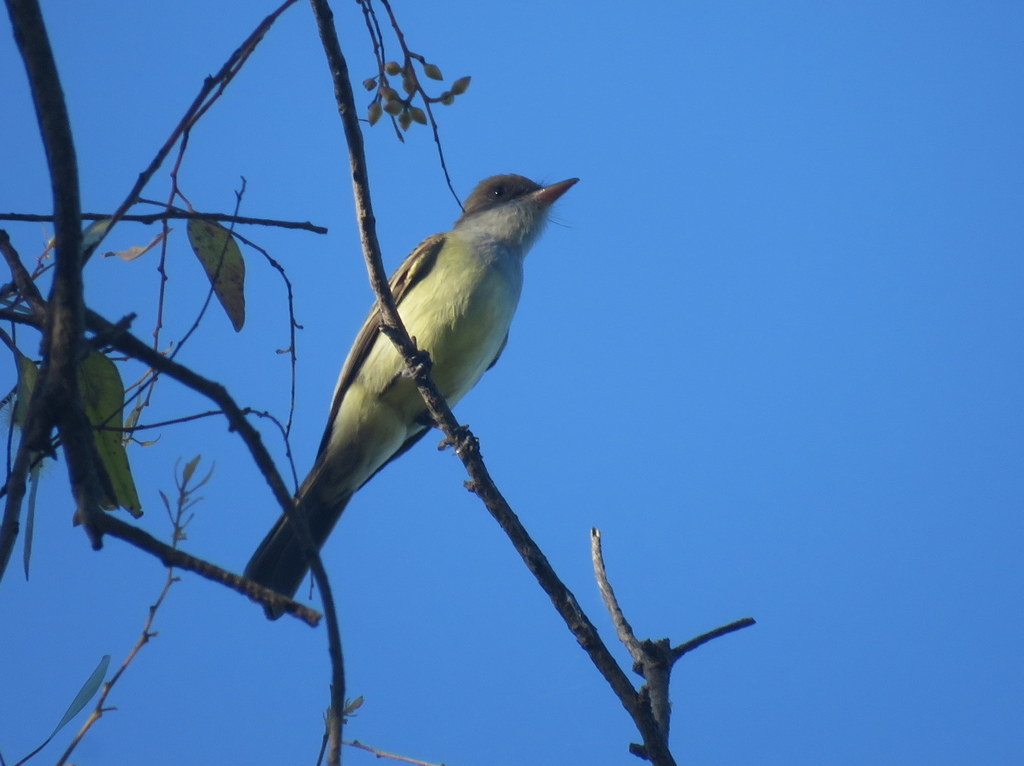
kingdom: Animalia
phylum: Chordata
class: Aves
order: Passeriformes
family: Tyrannidae
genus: Myiarchus
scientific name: Myiarchus swainsoni
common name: Swainson's flycatcher
